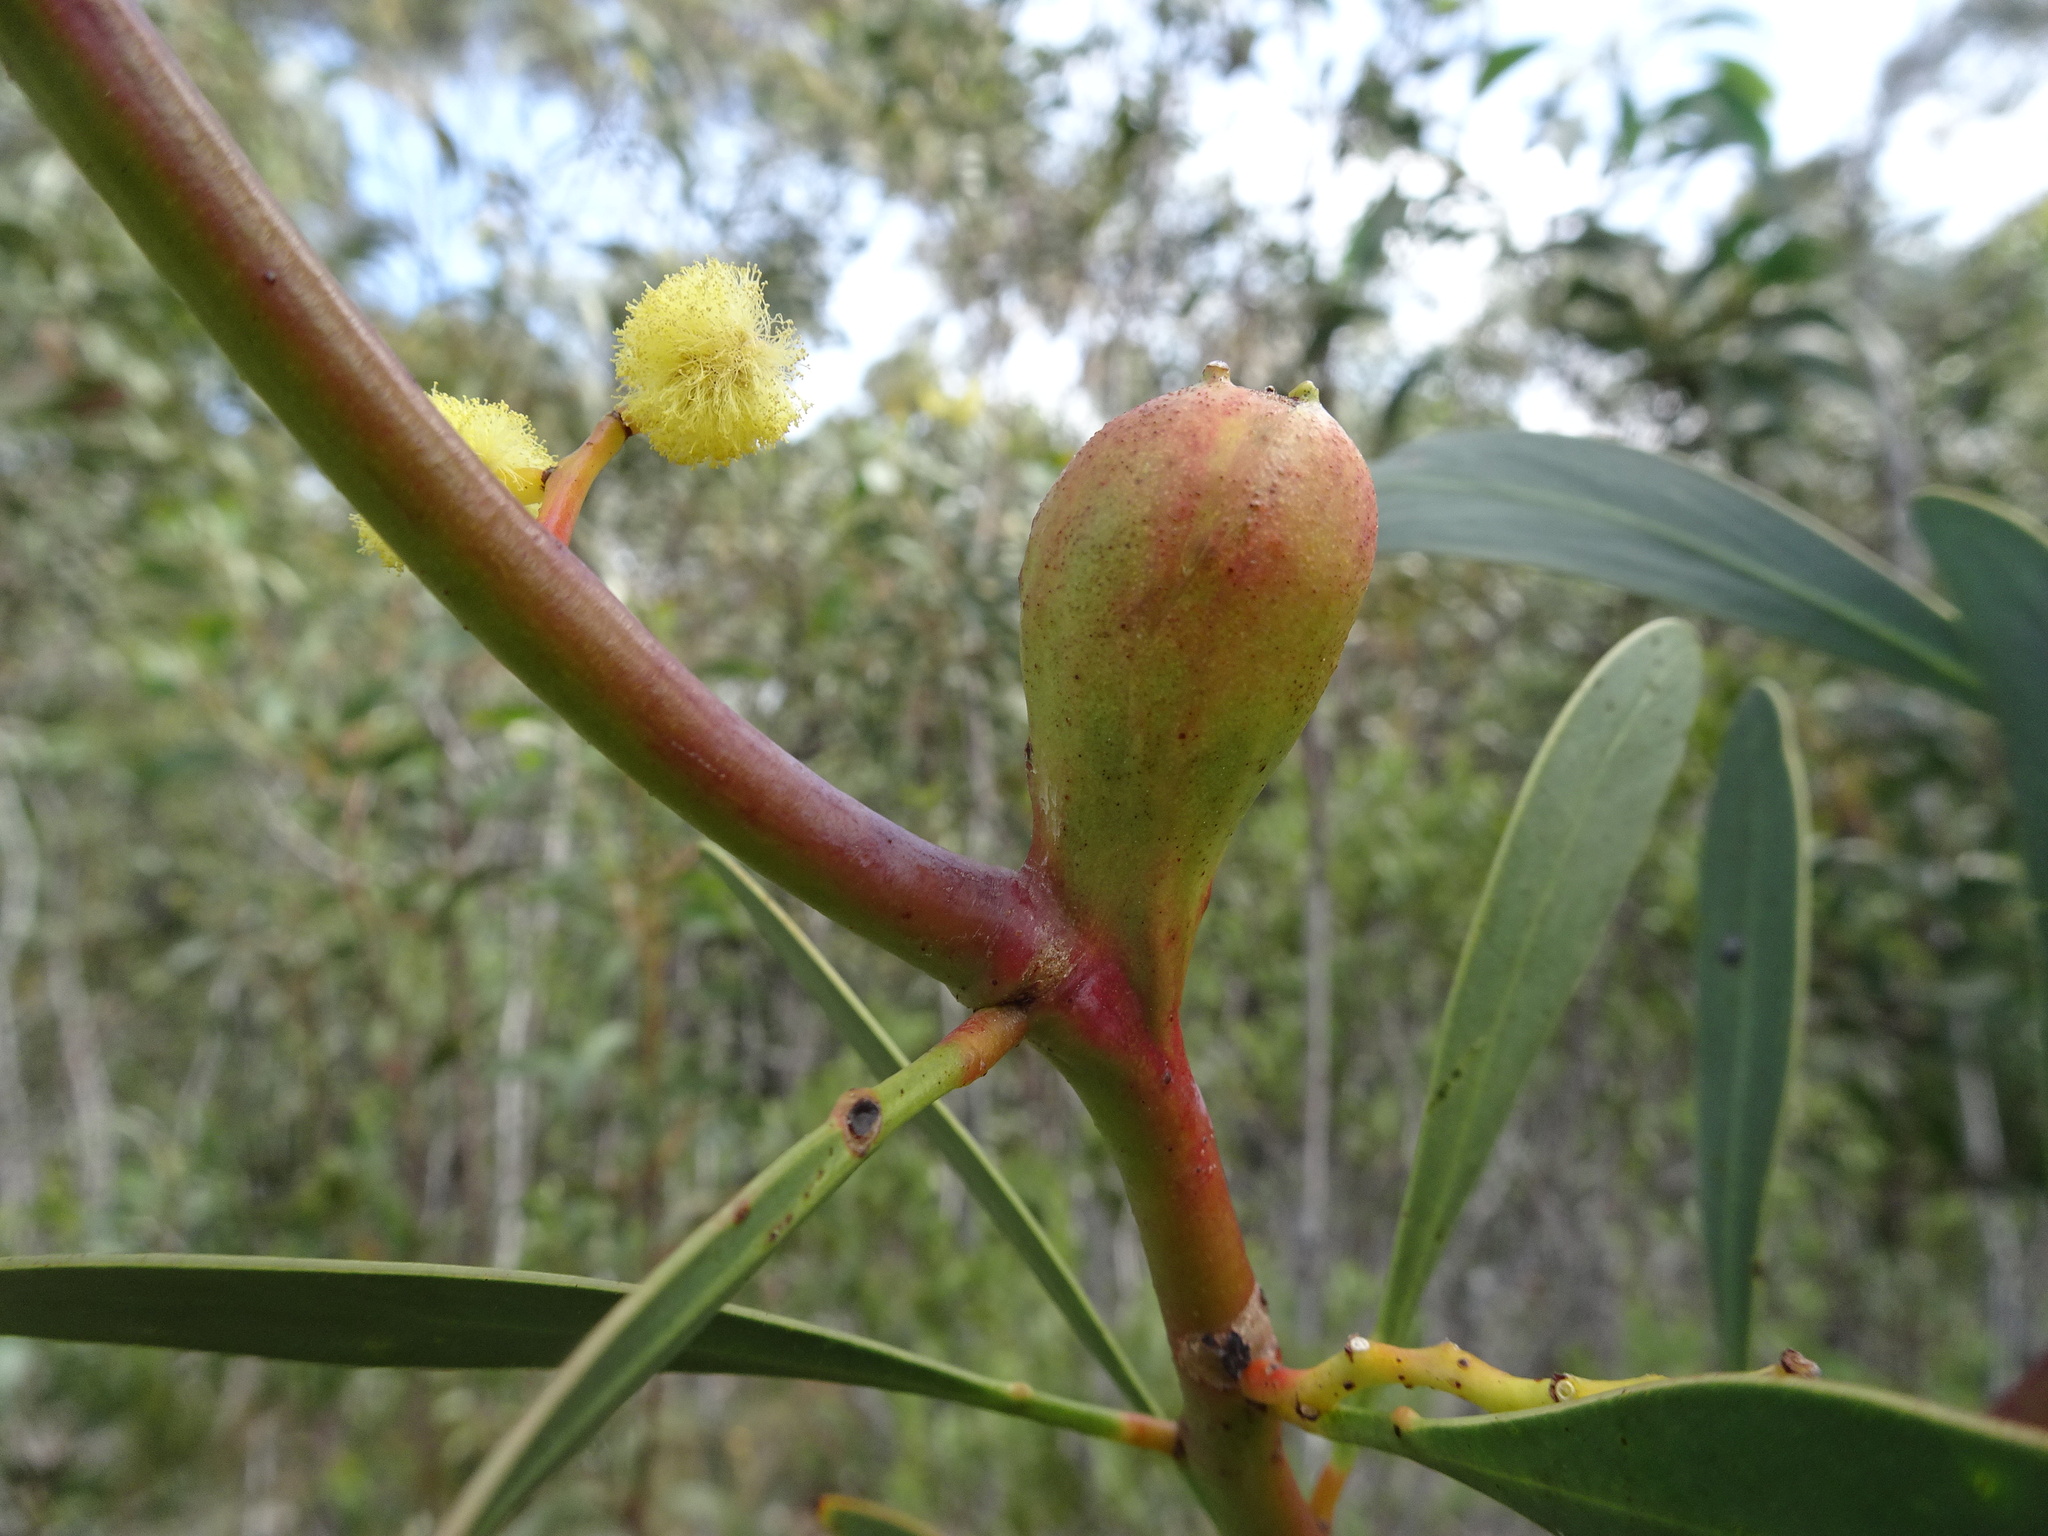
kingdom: Animalia
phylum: Arthropoda
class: Insecta
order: Hymenoptera
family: Pteromalidae
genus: Trichilogaster
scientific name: Trichilogaster signiventris
